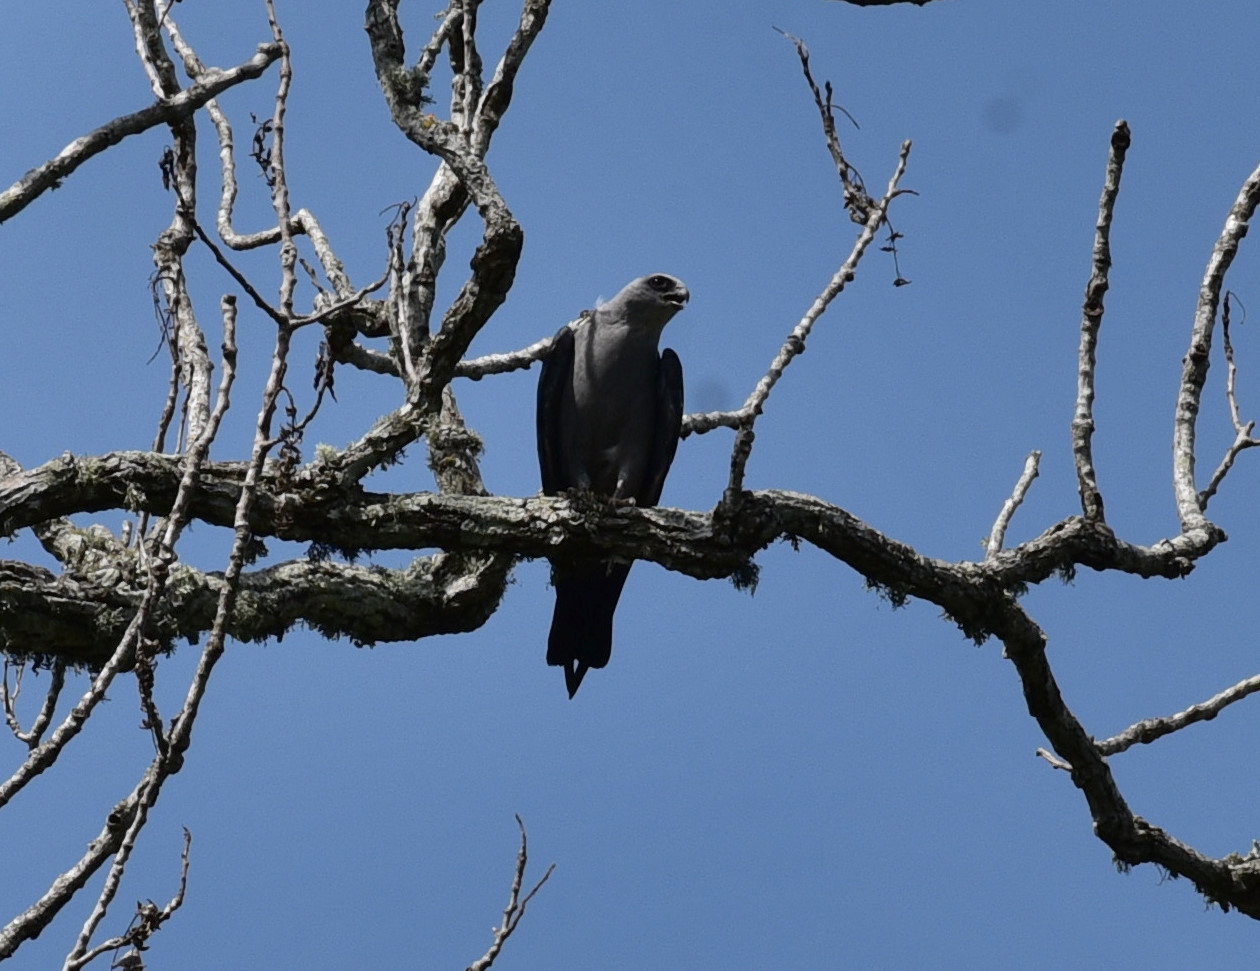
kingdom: Animalia
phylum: Chordata
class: Aves
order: Accipitriformes
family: Accipitridae
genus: Ictinia
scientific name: Ictinia mississippiensis
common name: Mississippi kite
